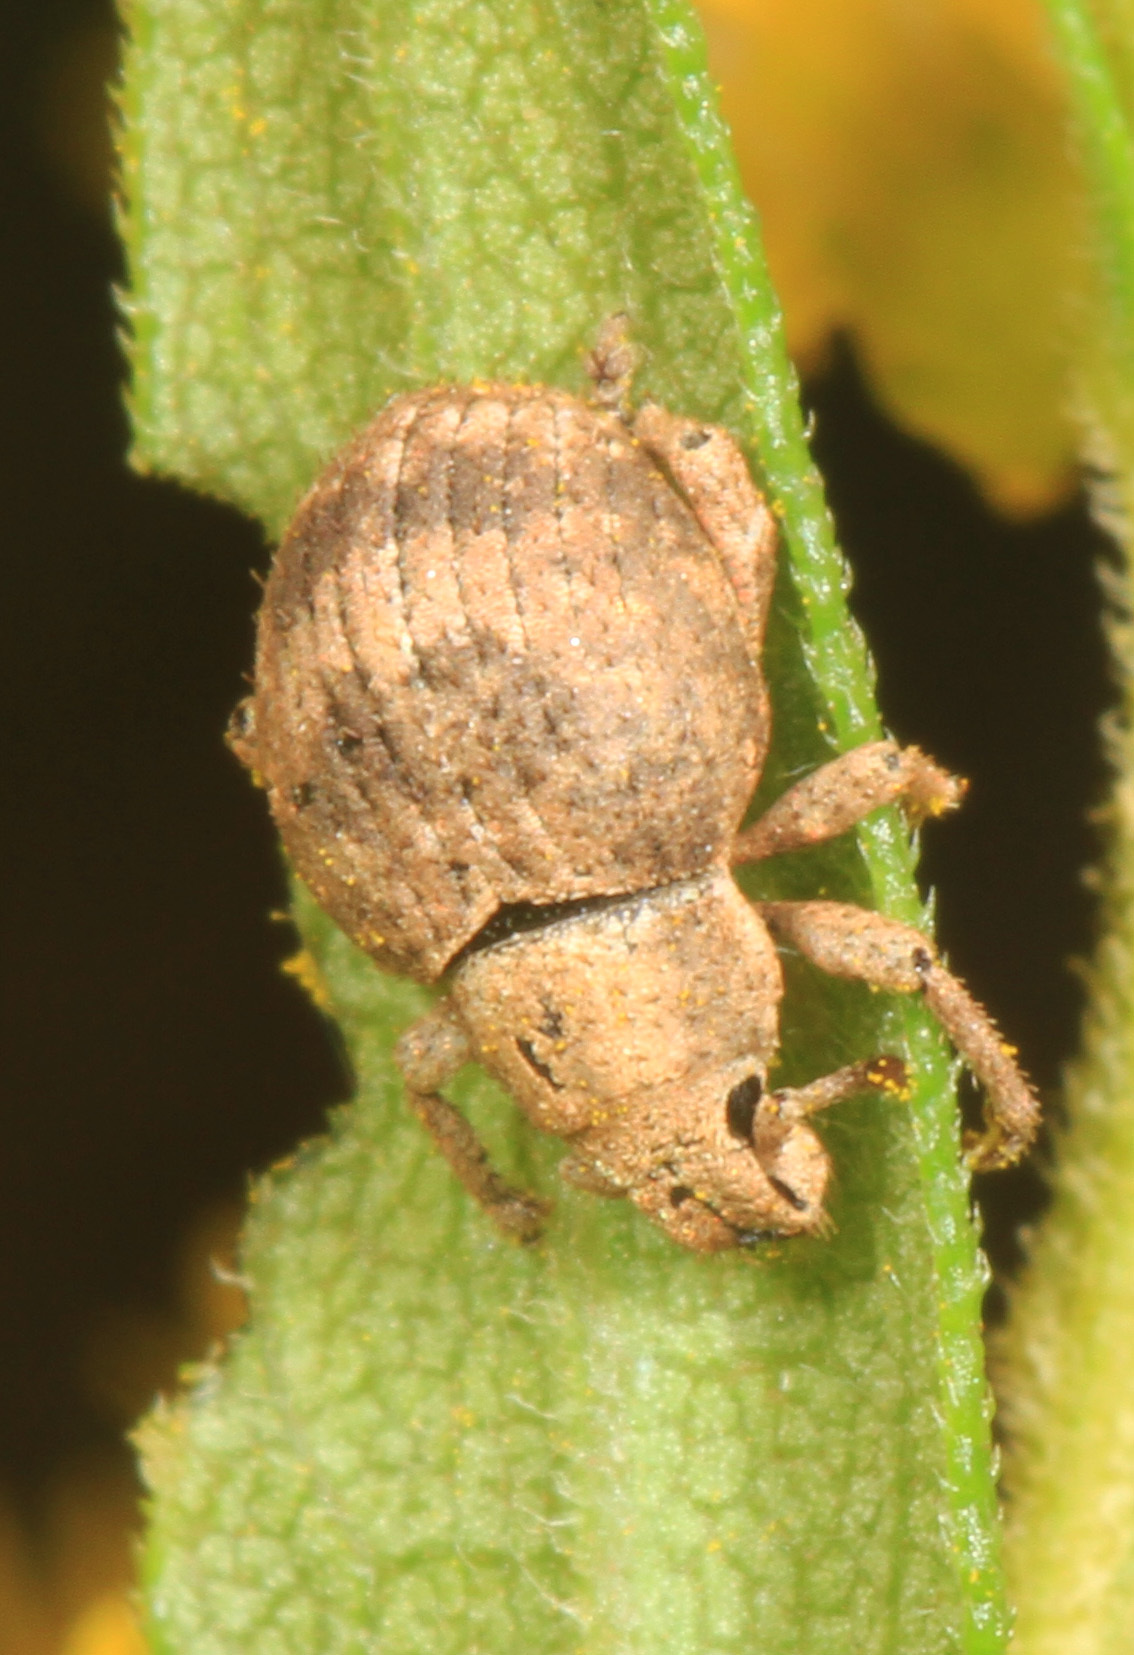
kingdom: Animalia
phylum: Arthropoda
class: Insecta
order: Coleoptera
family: Curculionidae
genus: Pseudocneorhinus
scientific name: Pseudocneorhinus bifasciatus
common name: Two-banded japanese weevil
